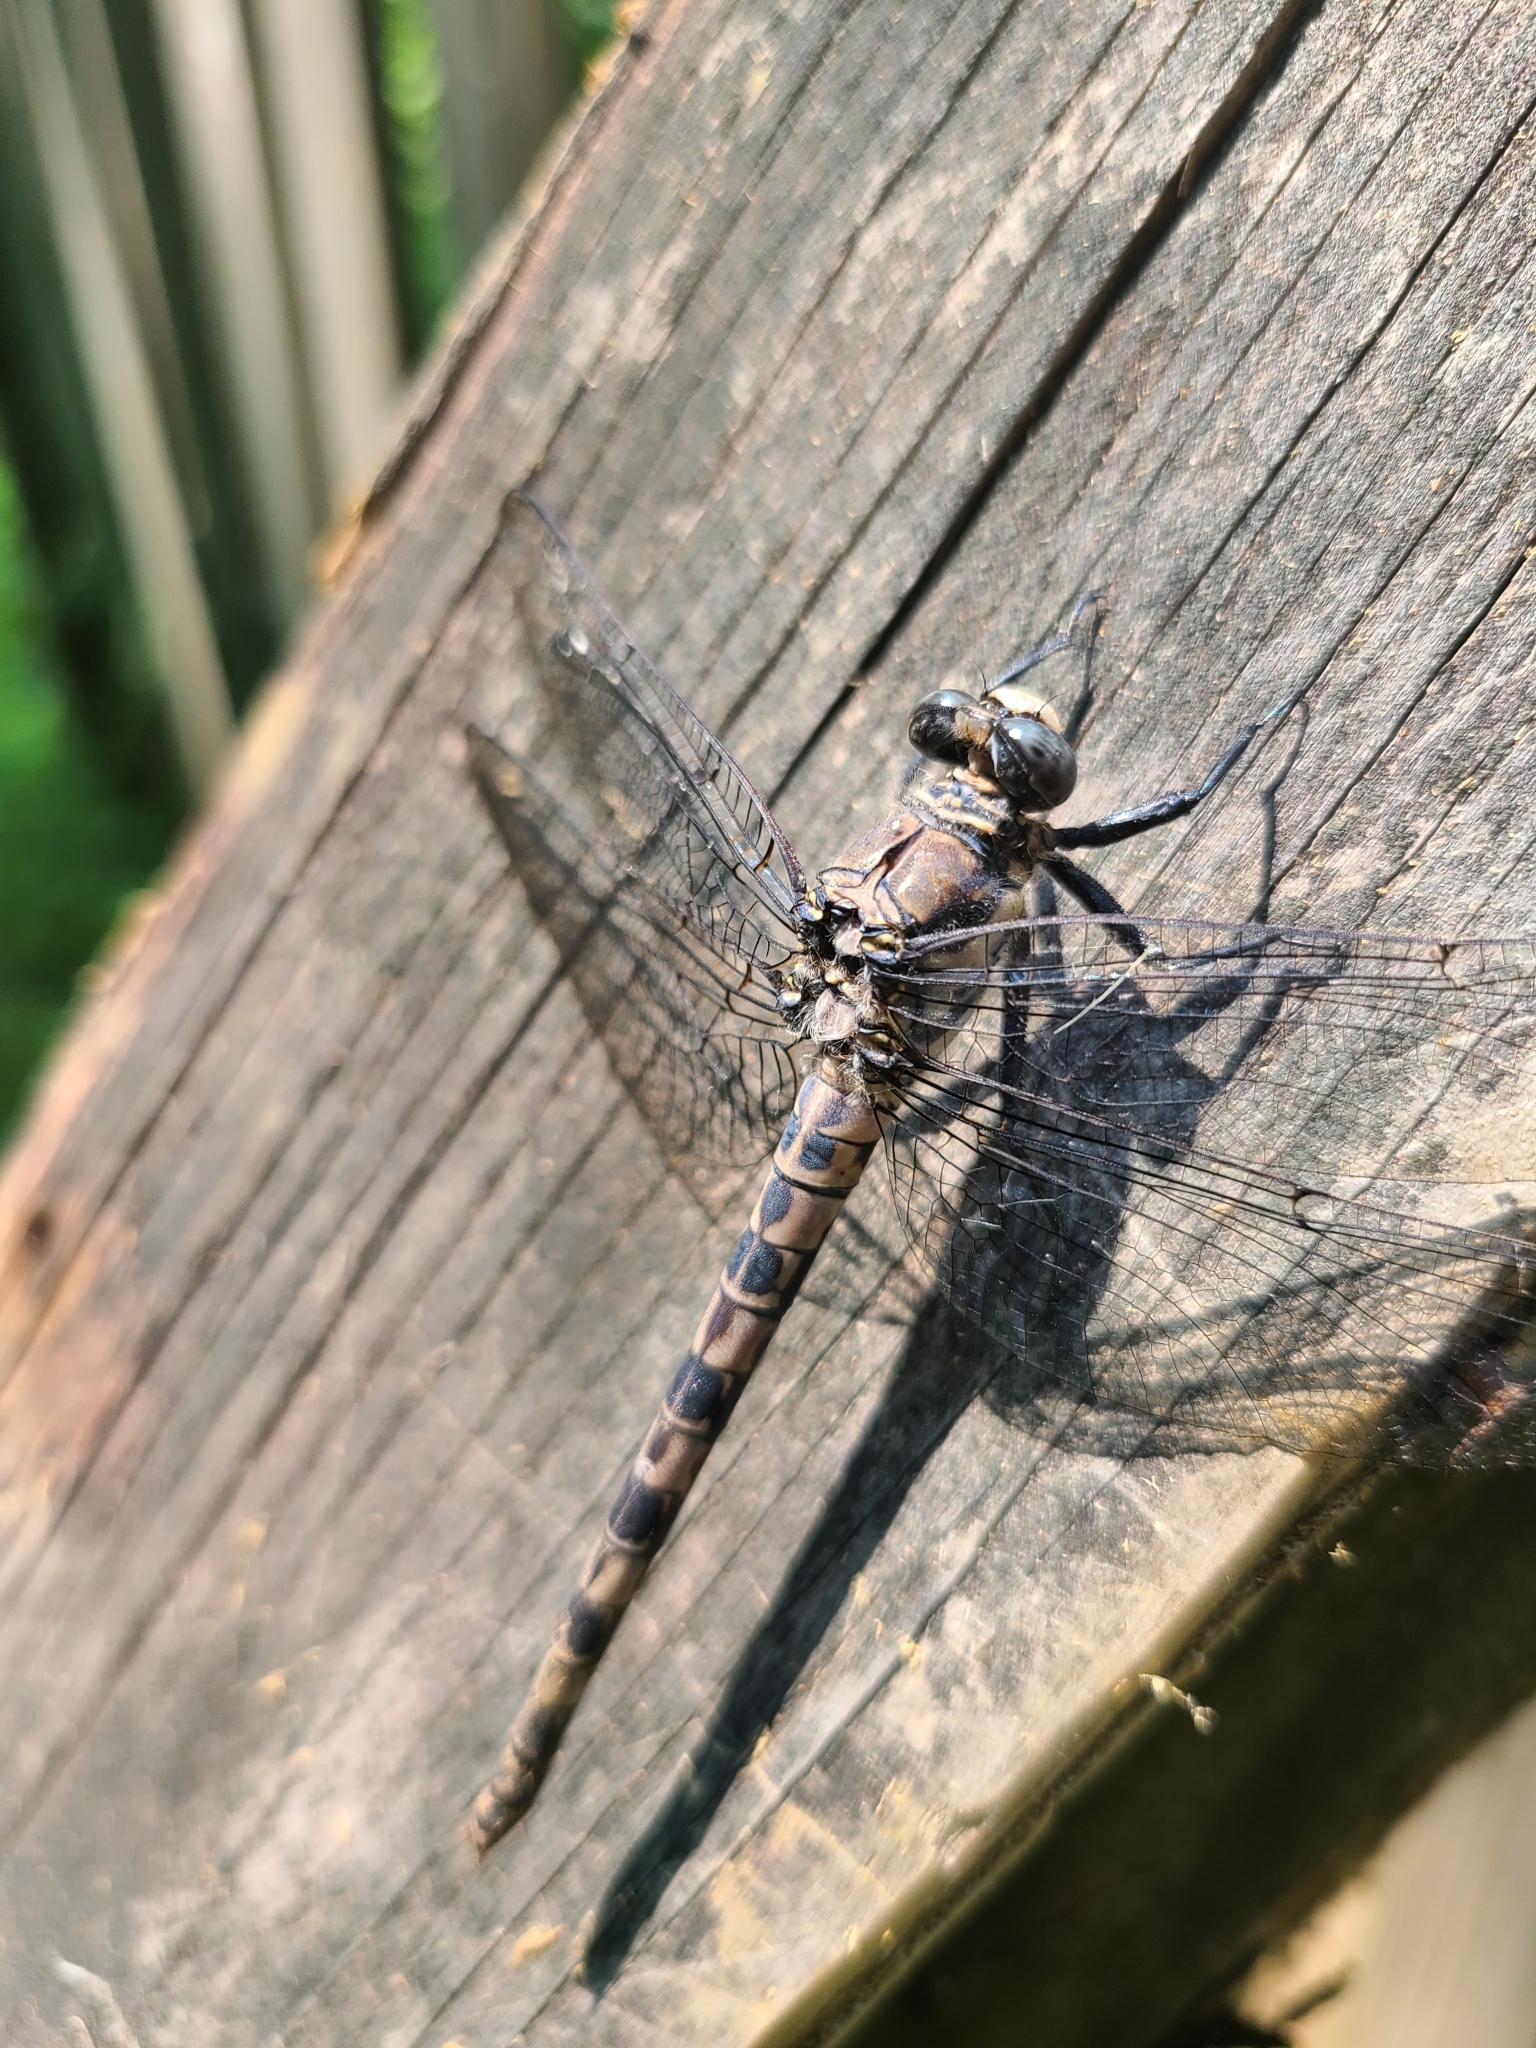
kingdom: Animalia
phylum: Arthropoda
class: Insecta
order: Odonata
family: Petaluridae
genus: Tachopteryx
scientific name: Tachopteryx thoreyi
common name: Gray petaltail
